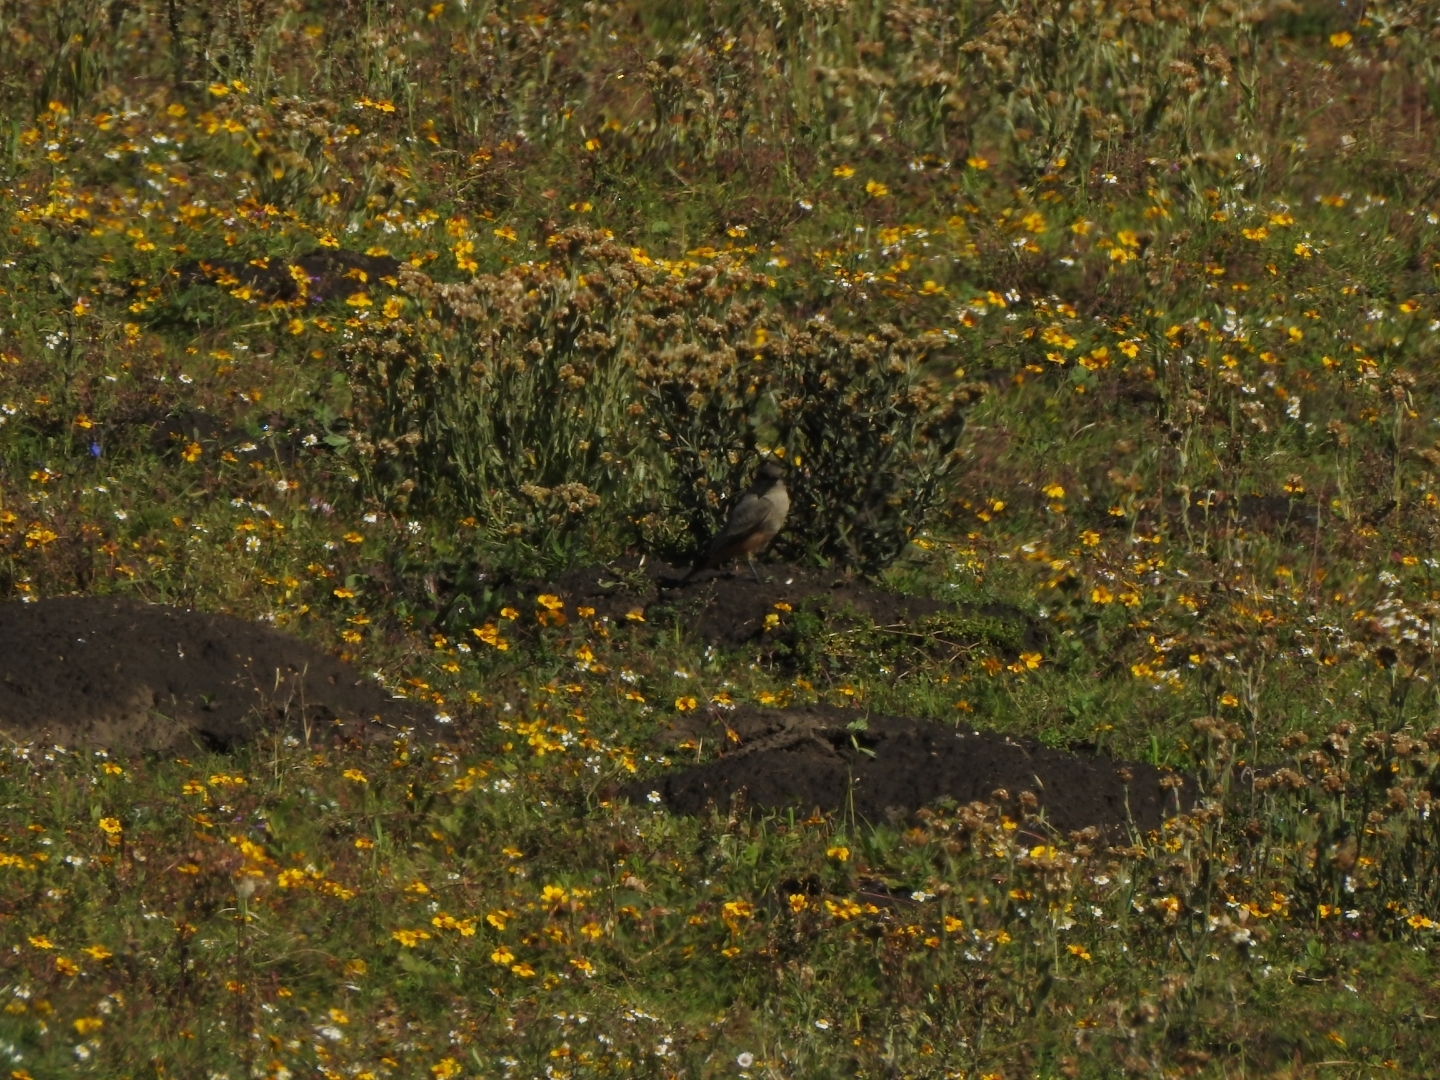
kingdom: Animalia
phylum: Chordata
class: Aves
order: Passeriformes
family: Tyrannidae
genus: Sayornis
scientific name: Sayornis saya
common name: Say's phoebe
